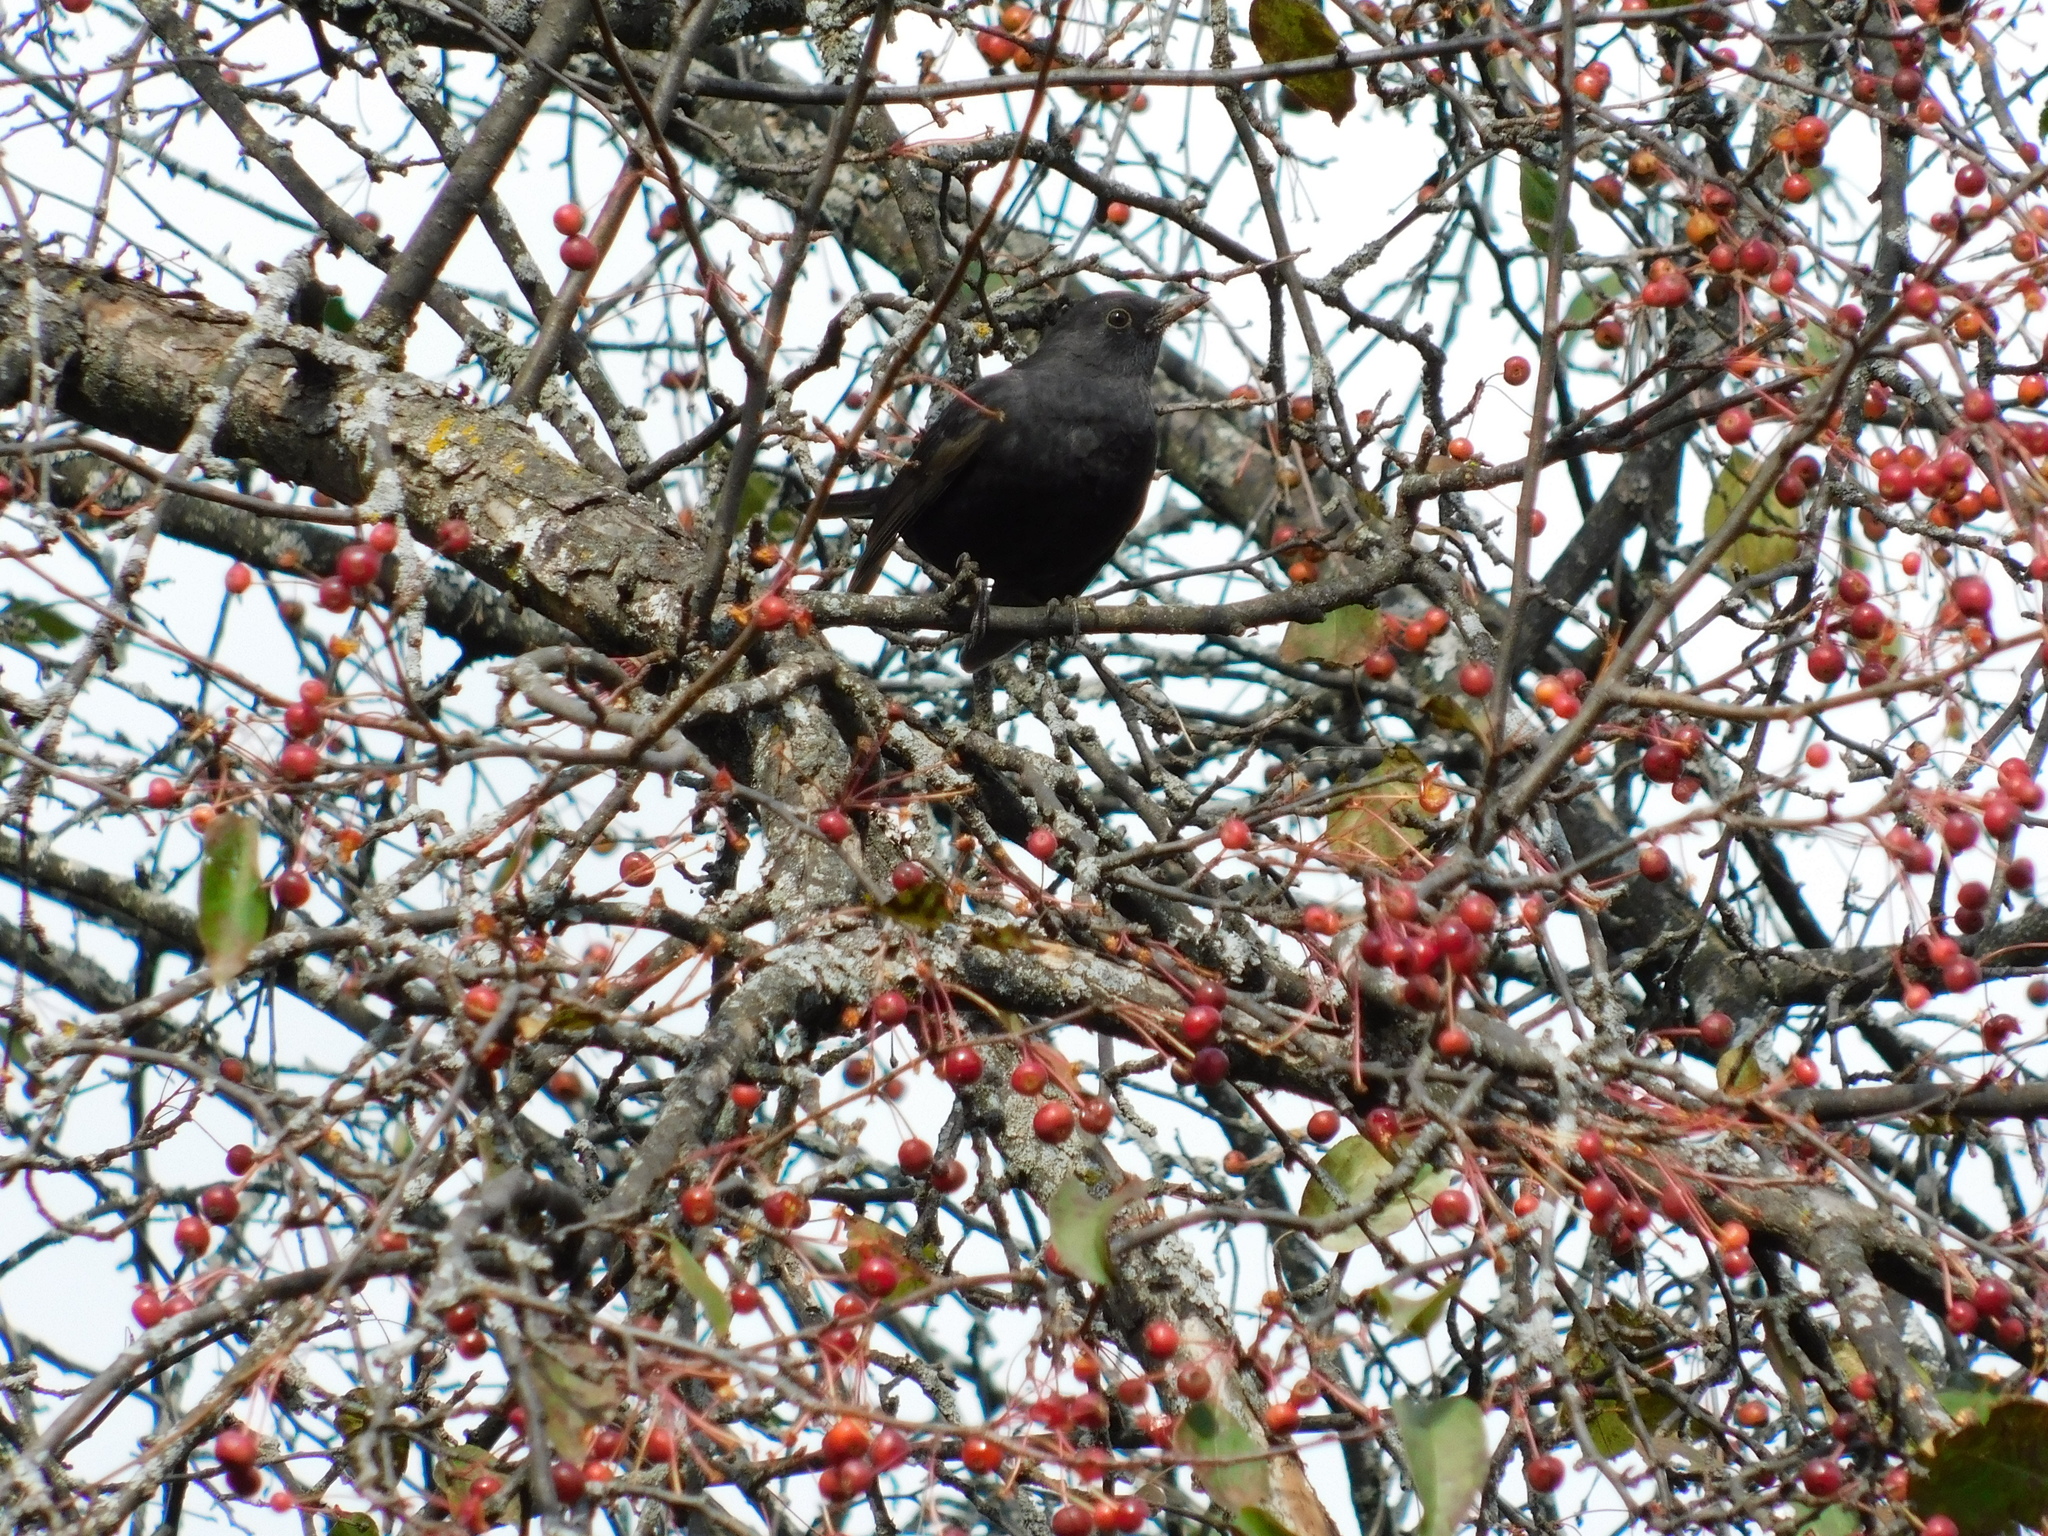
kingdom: Animalia
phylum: Chordata
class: Aves
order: Passeriformes
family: Turdidae
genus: Turdus
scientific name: Turdus merula
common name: Common blackbird
